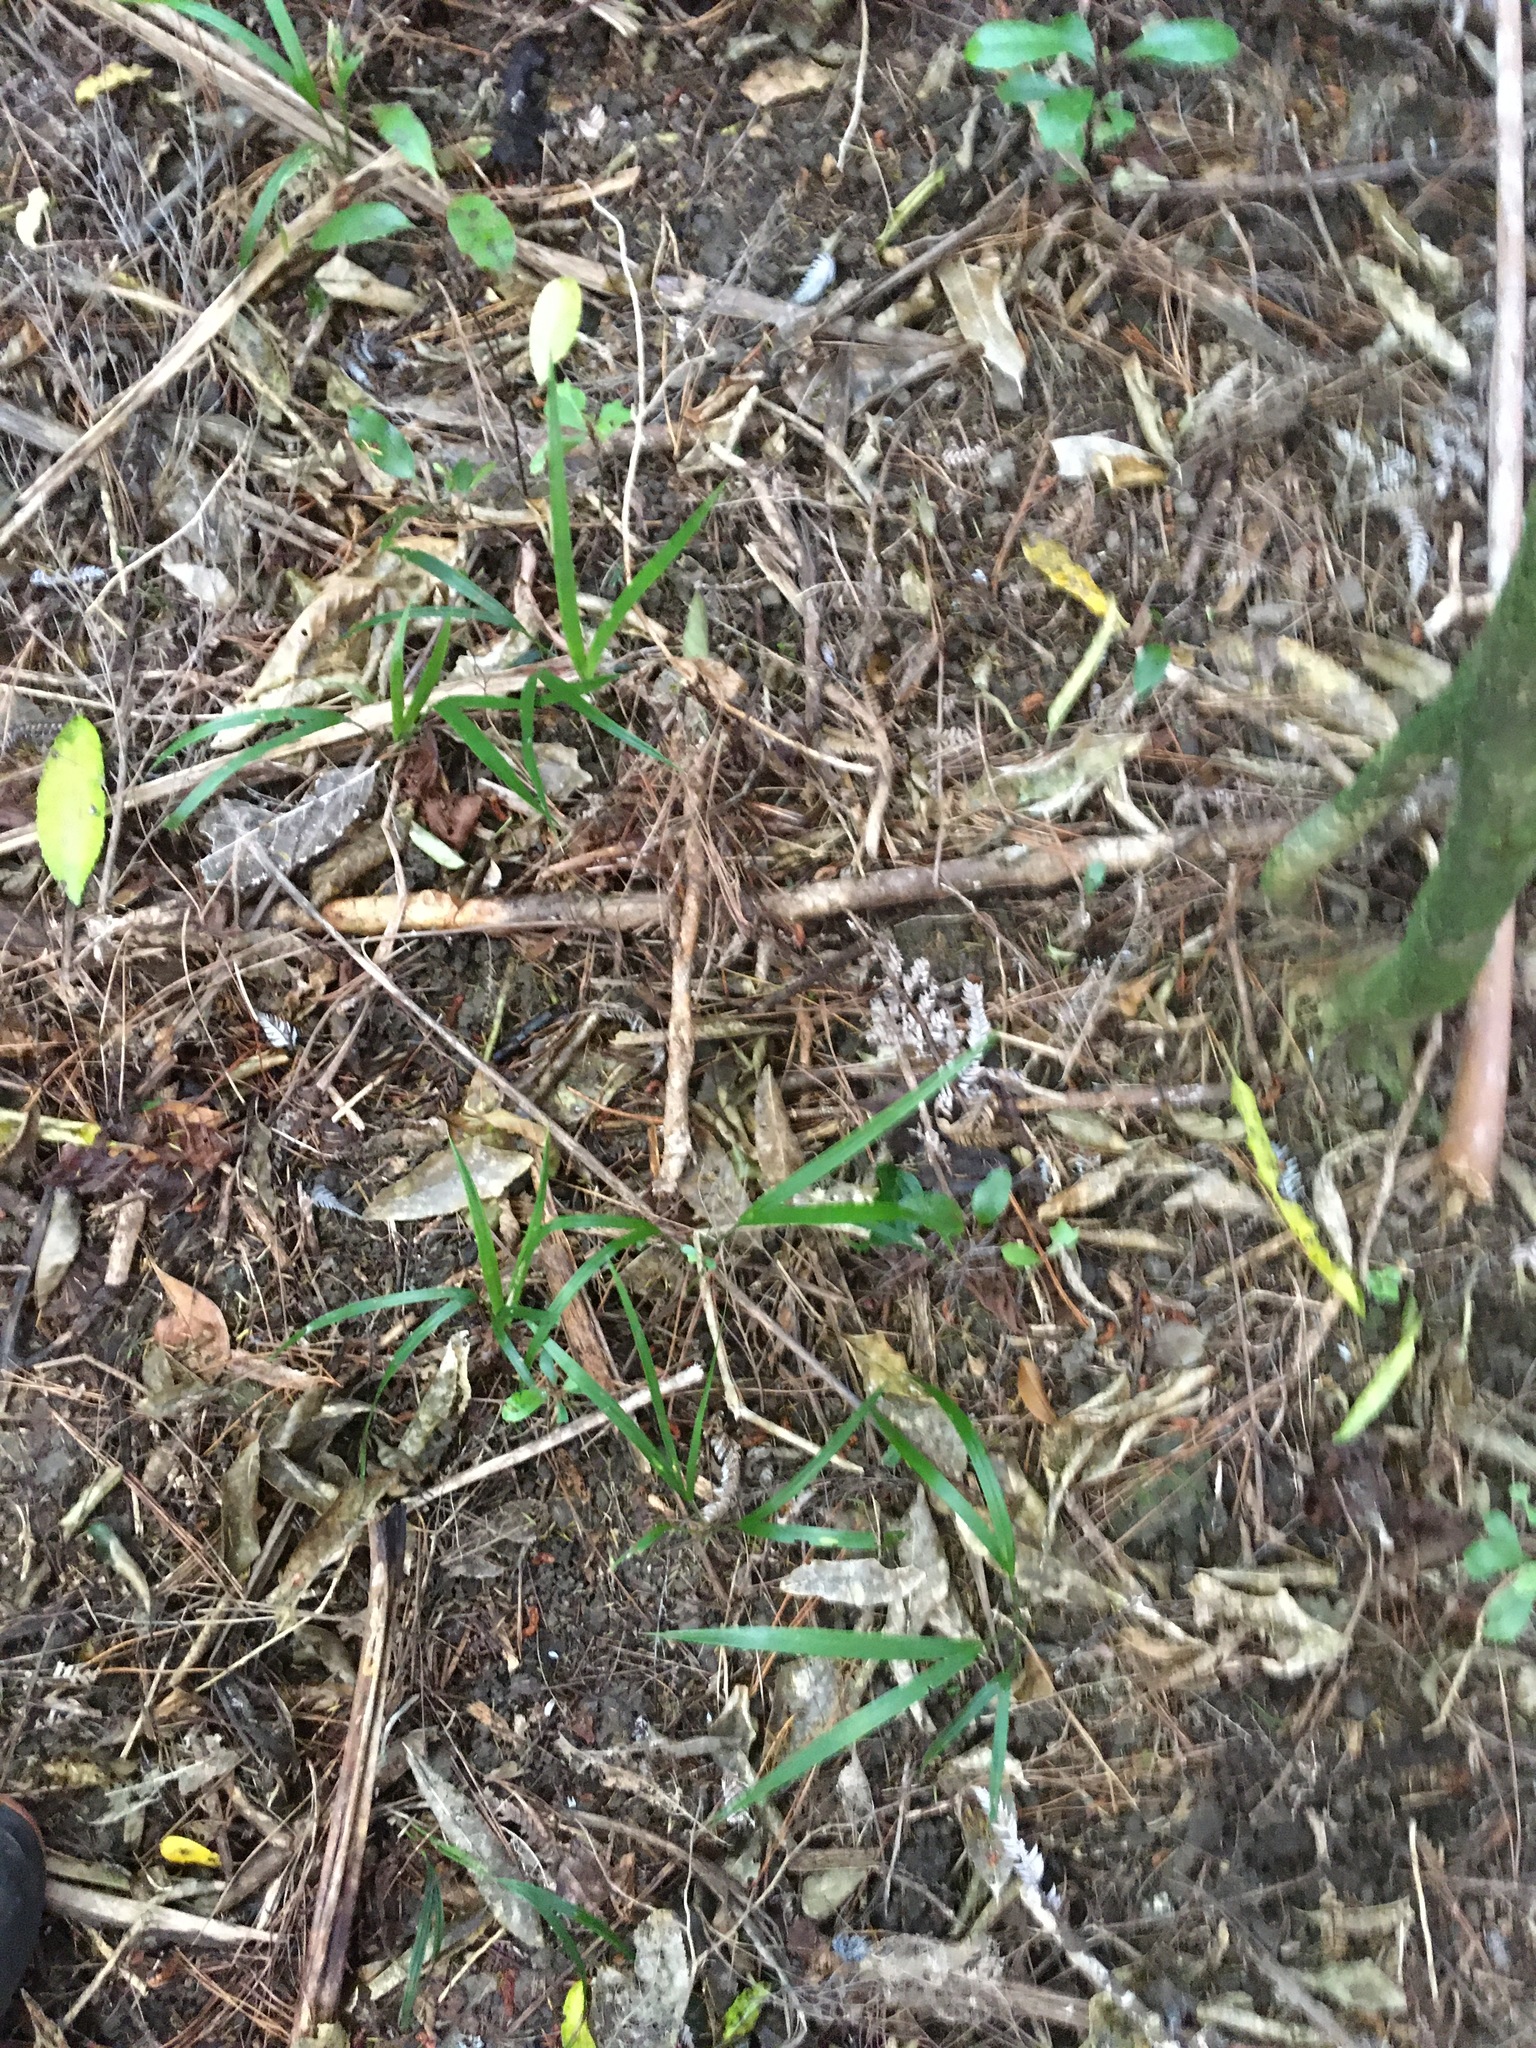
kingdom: Plantae
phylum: Tracheophyta
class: Liliopsida
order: Arecales
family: Arecaceae
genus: Rhopalostylis
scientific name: Rhopalostylis sapida
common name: Feather-duster palm
